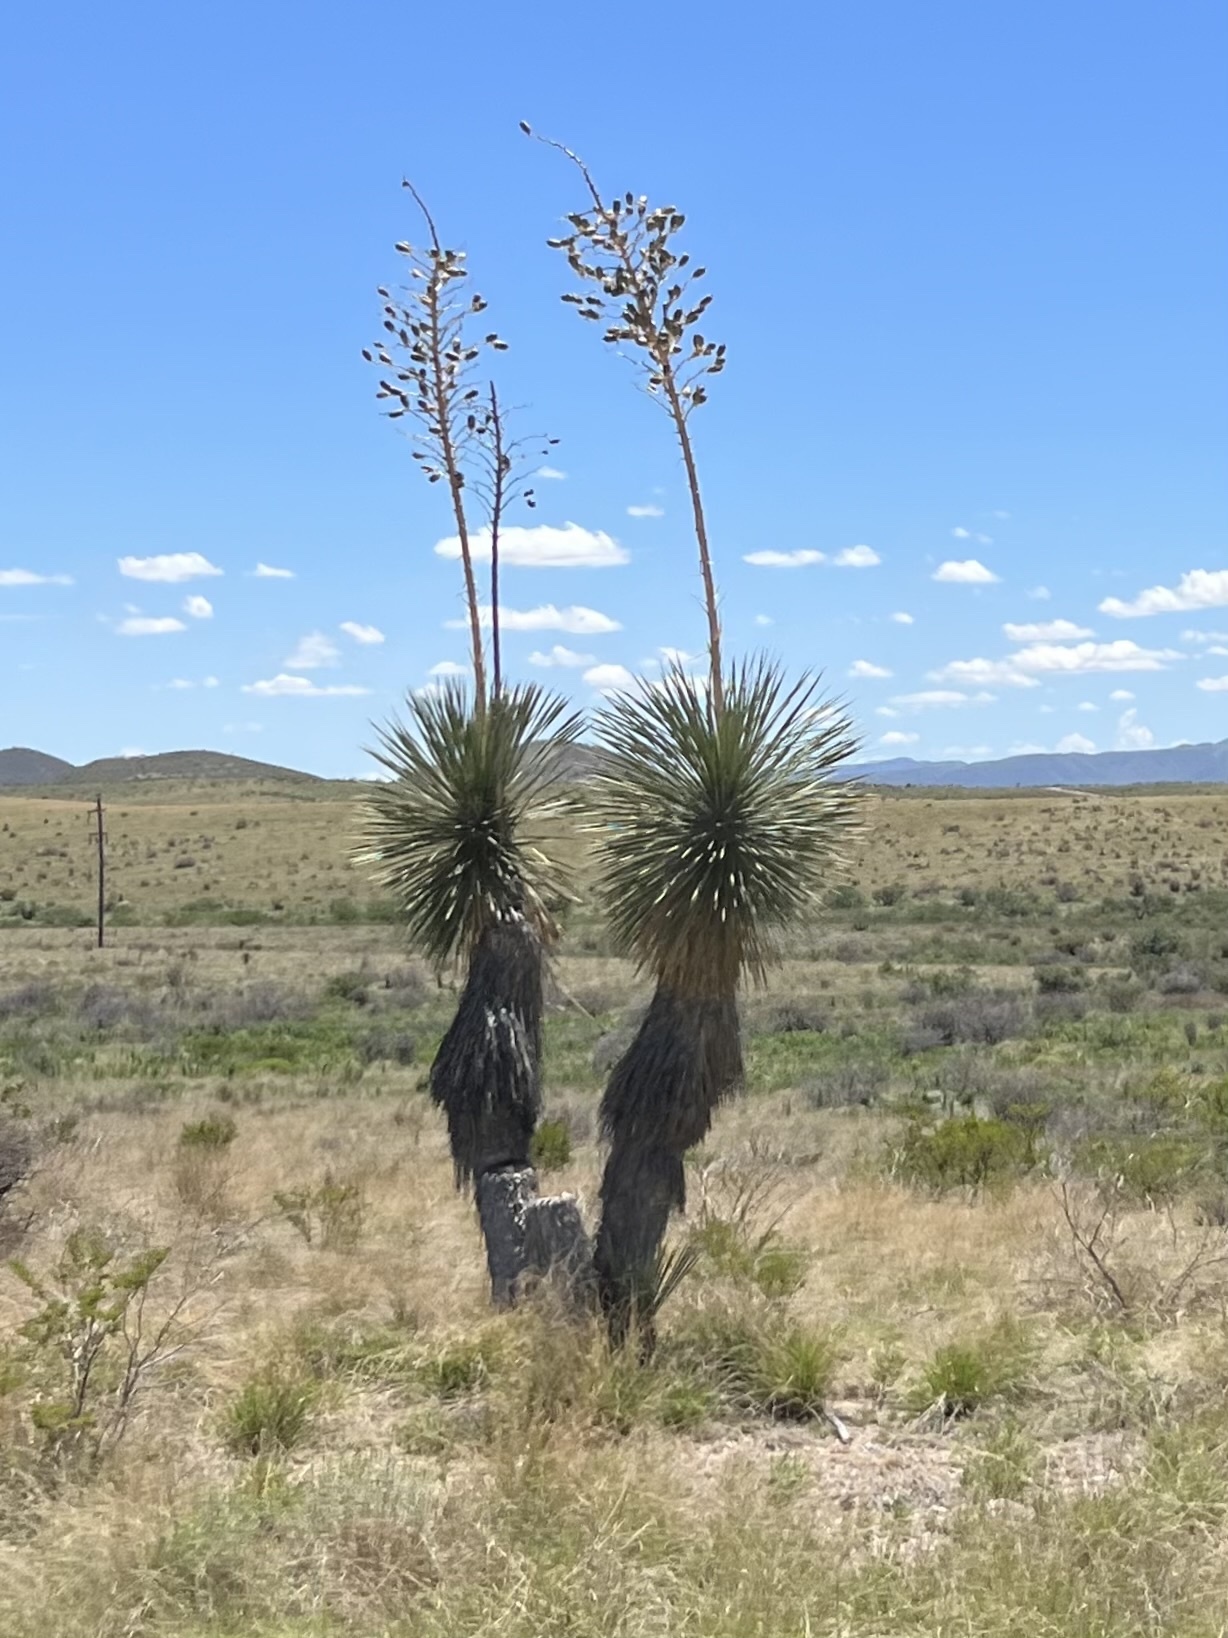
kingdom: Plantae
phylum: Tracheophyta
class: Liliopsida
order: Asparagales
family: Asparagaceae
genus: Yucca
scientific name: Yucca elata
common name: Palmella
